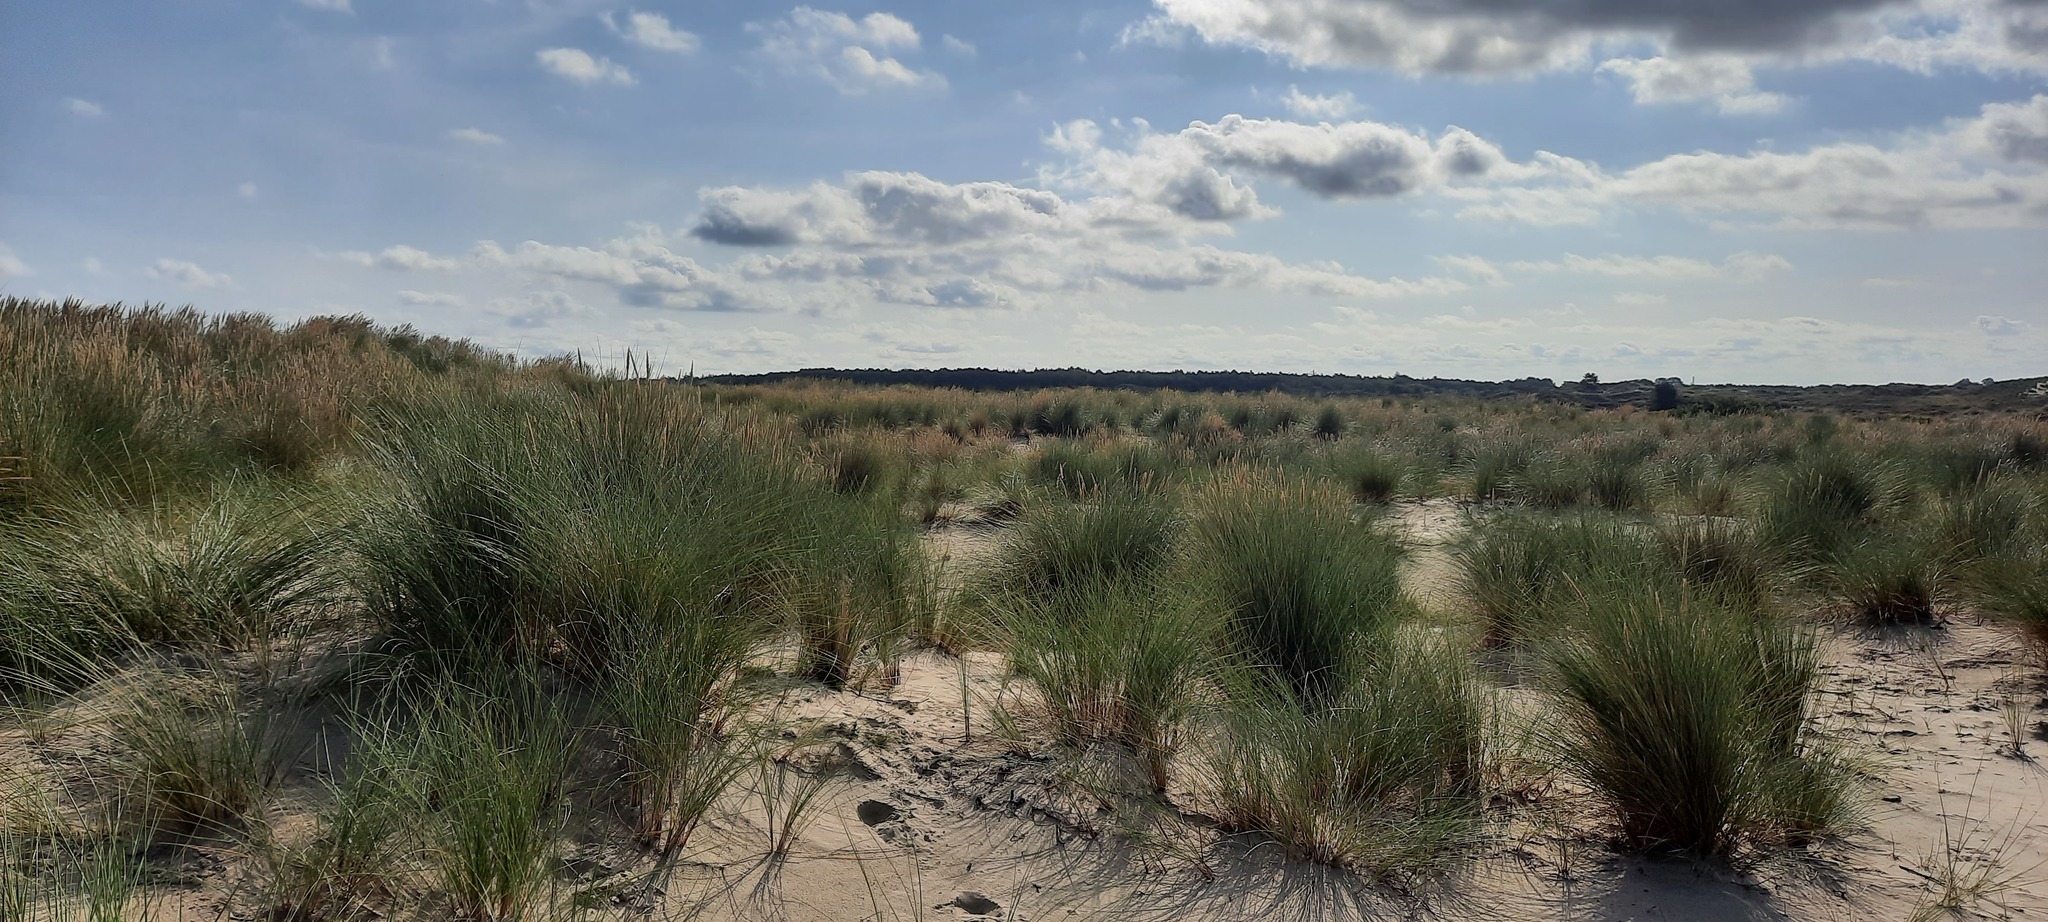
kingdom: Plantae
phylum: Tracheophyta
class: Liliopsida
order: Poales
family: Poaceae
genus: Calamagrostis
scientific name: Calamagrostis arenaria
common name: European beachgrass
